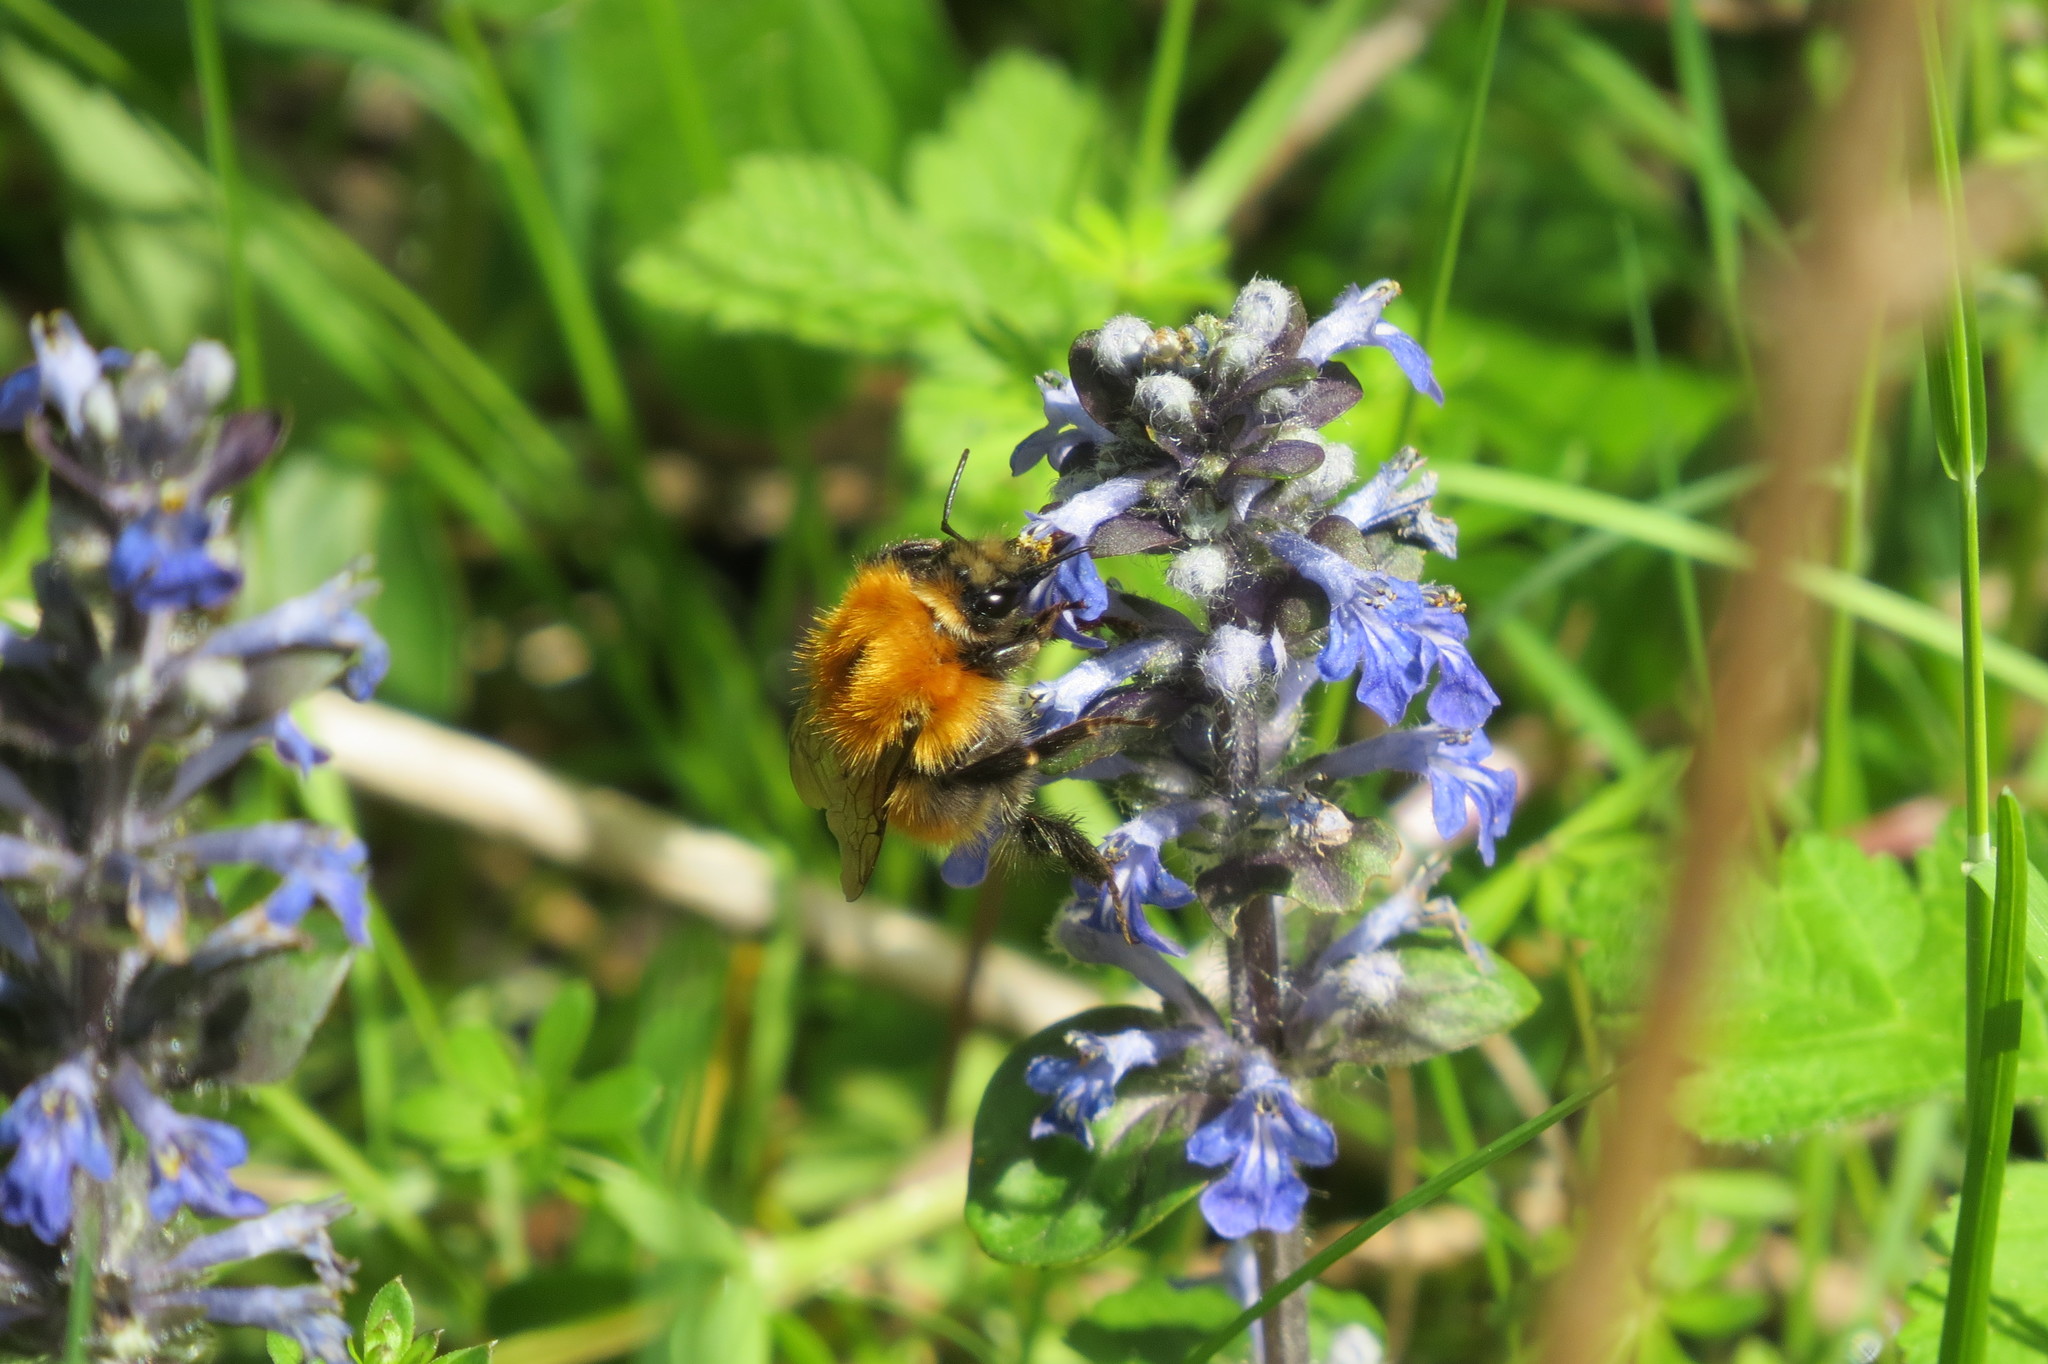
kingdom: Animalia
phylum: Arthropoda
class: Insecta
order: Hymenoptera
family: Apidae
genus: Bombus
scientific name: Bombus pascuorum
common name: Common carder bee
